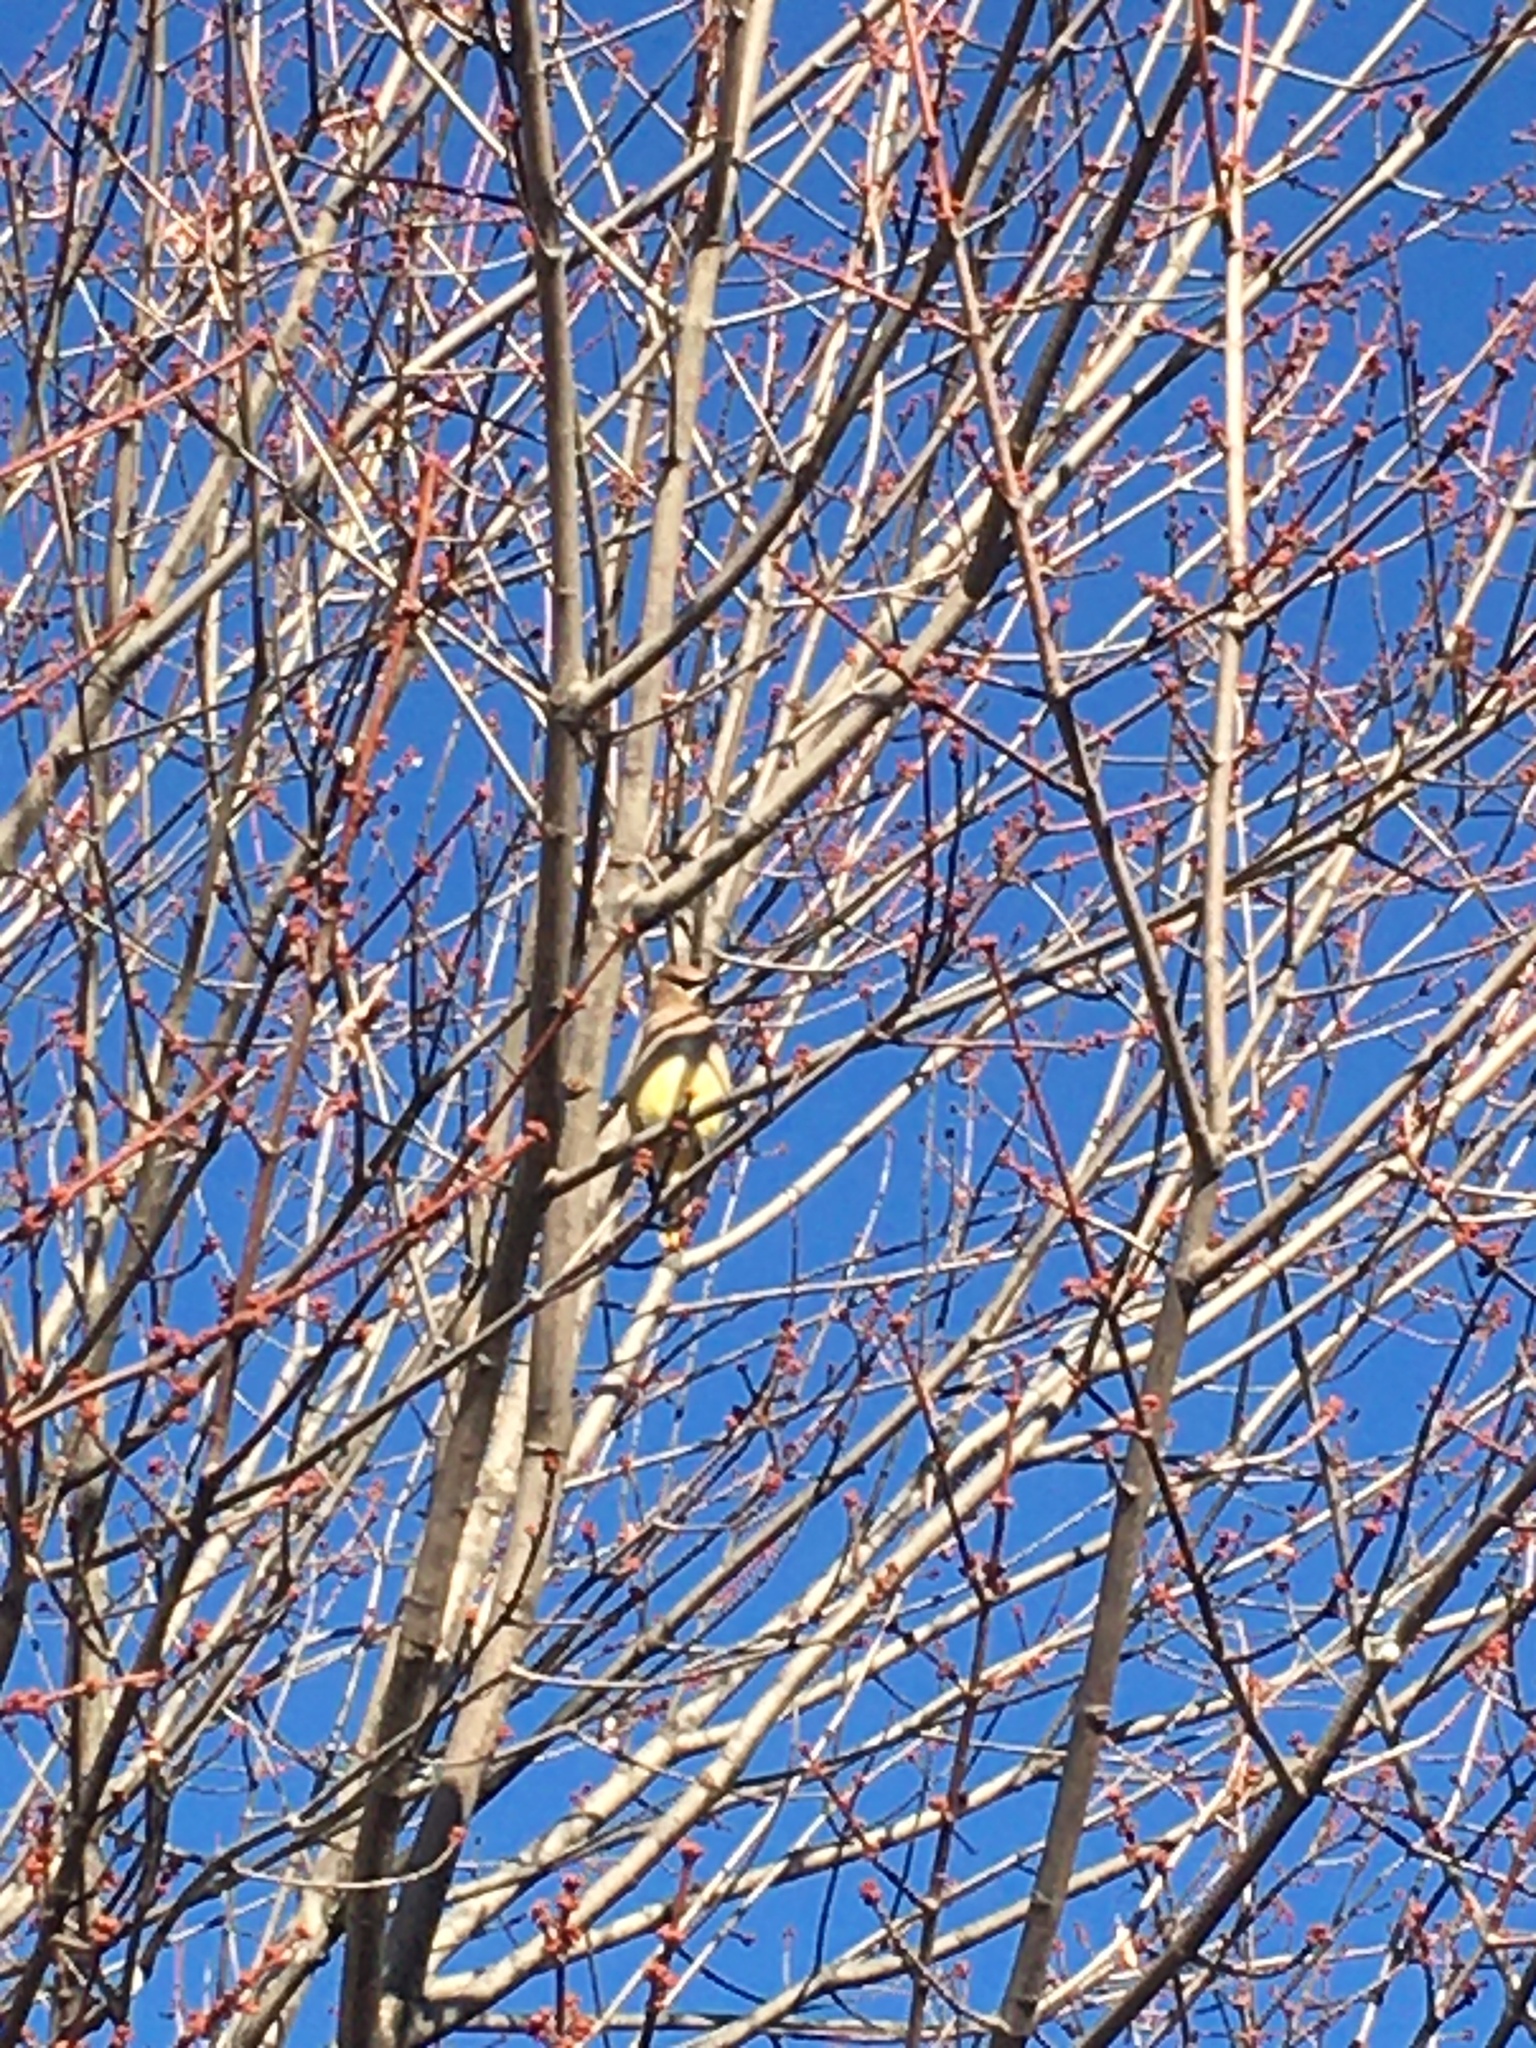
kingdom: Animalia
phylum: Chordata
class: Aves
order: Passeriformes
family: Bombycillidae
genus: Bombycilla
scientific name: Bombycilla cedrorum
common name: Cedar waxwing
